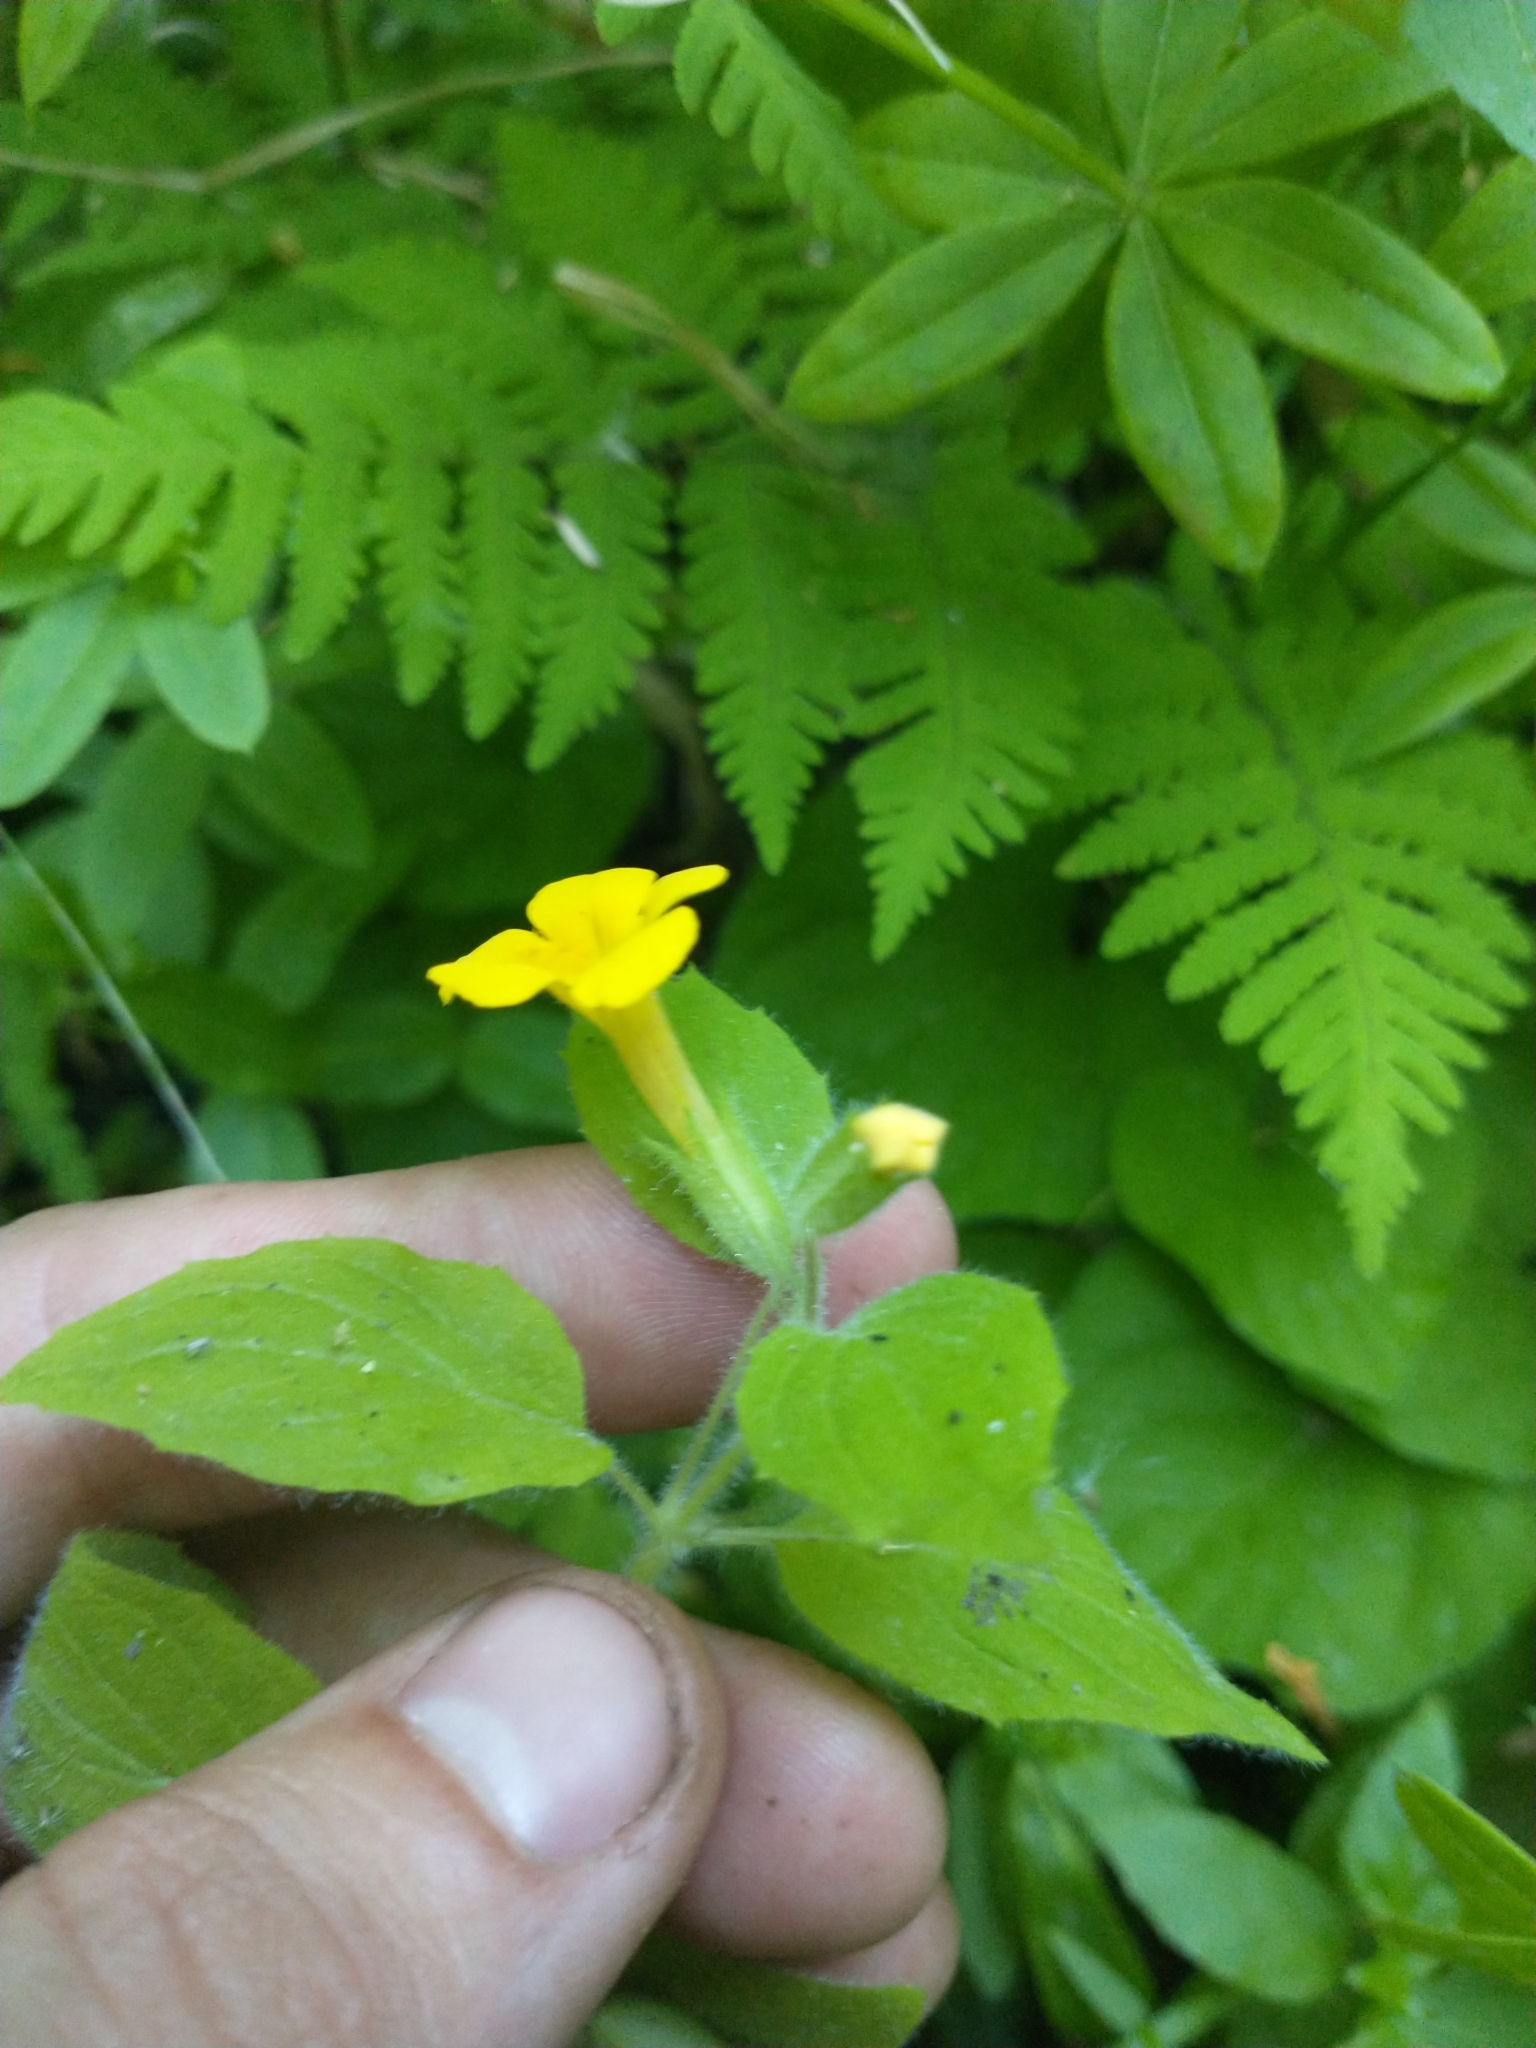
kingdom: Plantae
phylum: Tracheophyta
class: Magnoliopsida
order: Lamiales
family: Phrymaceae
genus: Erythranthe
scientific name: Erythranthe moschata
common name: Muskflower
